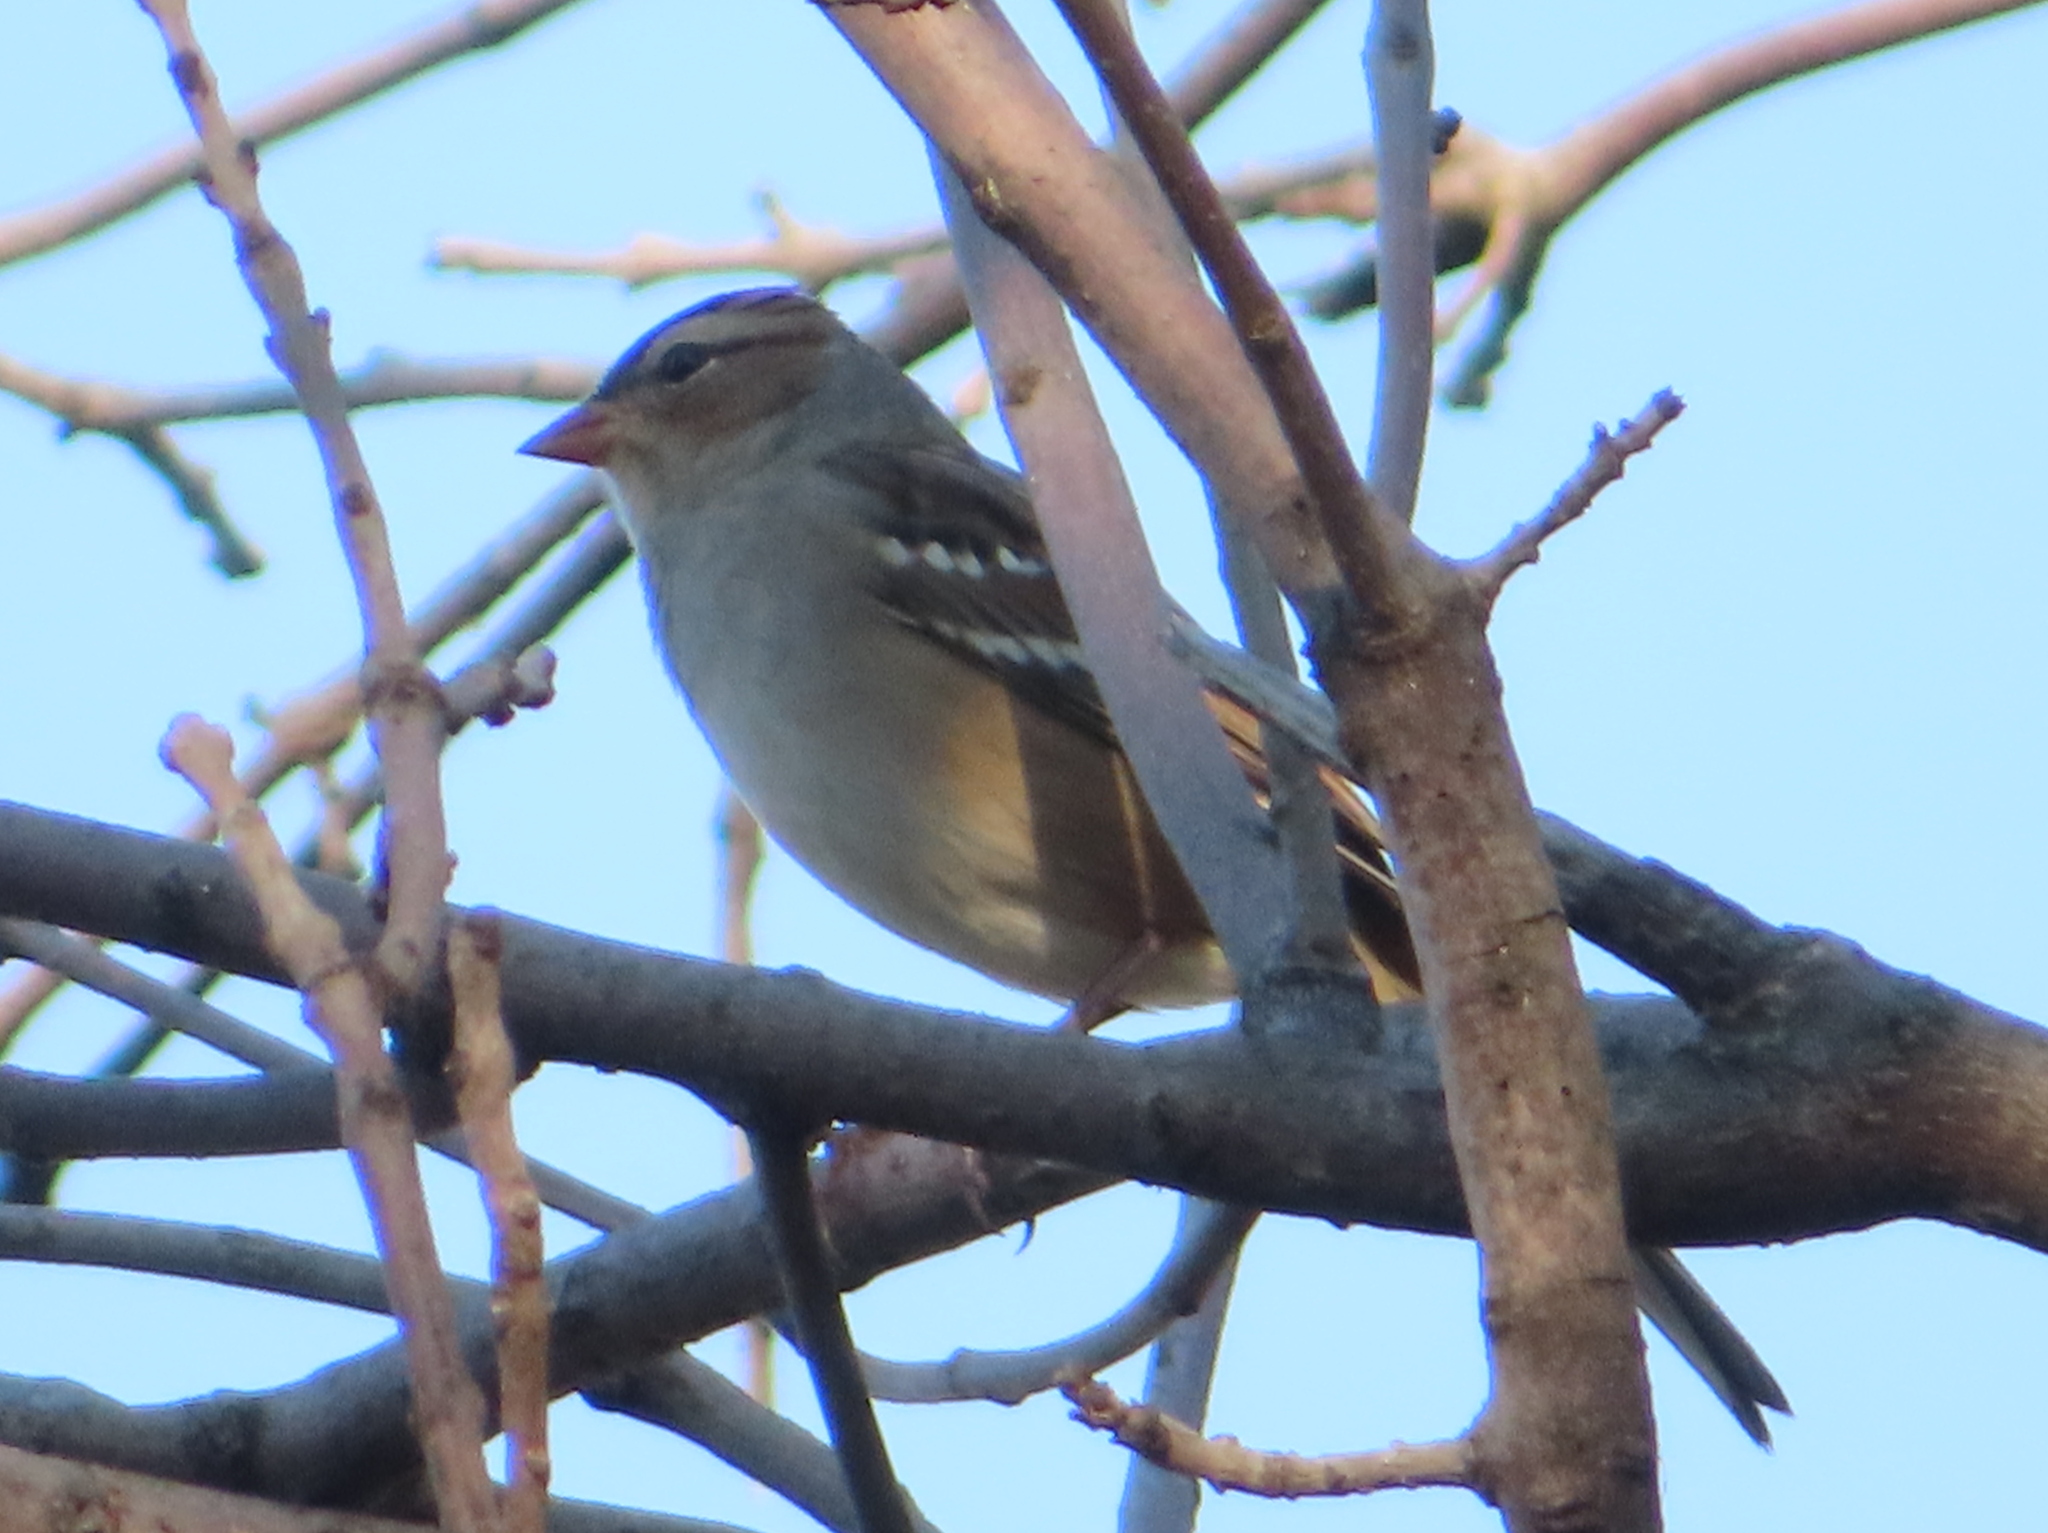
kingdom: Animalia
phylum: Chordata
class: Aves
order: Passeriformes
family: Passerellidae
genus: Zonotrichia
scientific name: Zonotrichia leucophrys
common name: White-crowned sparrow
